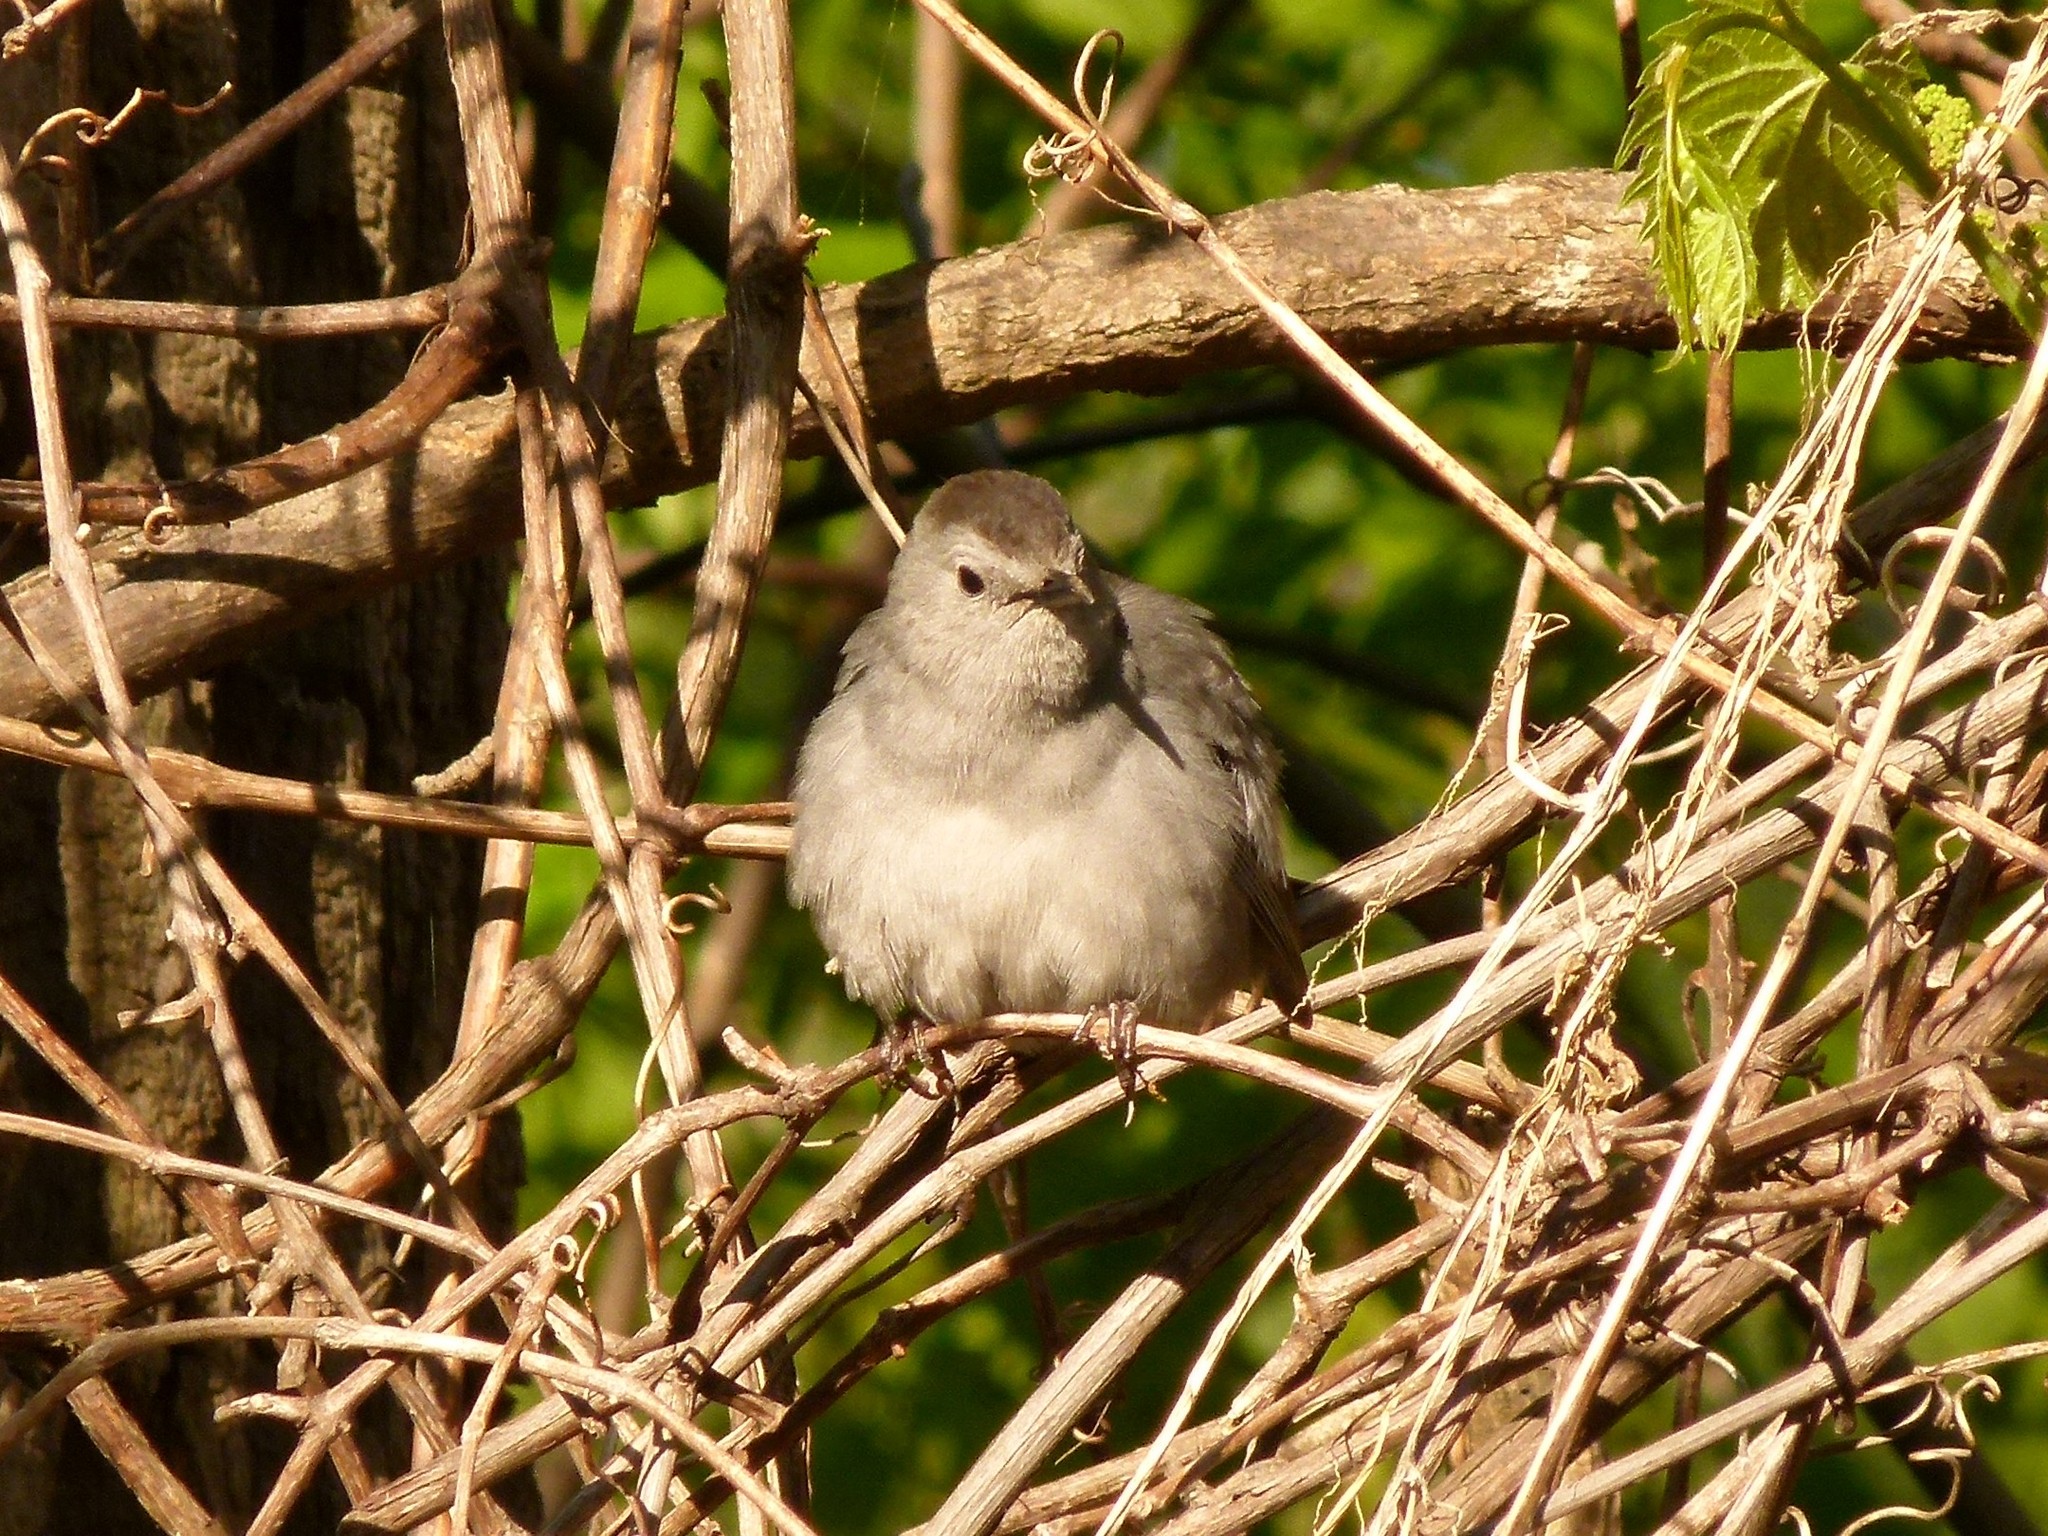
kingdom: Animalia
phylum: Chordata
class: Aves
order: Passeriformes
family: Mimidae
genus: Dumetella
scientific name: Dumetella carolinensis
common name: Gray catbird
